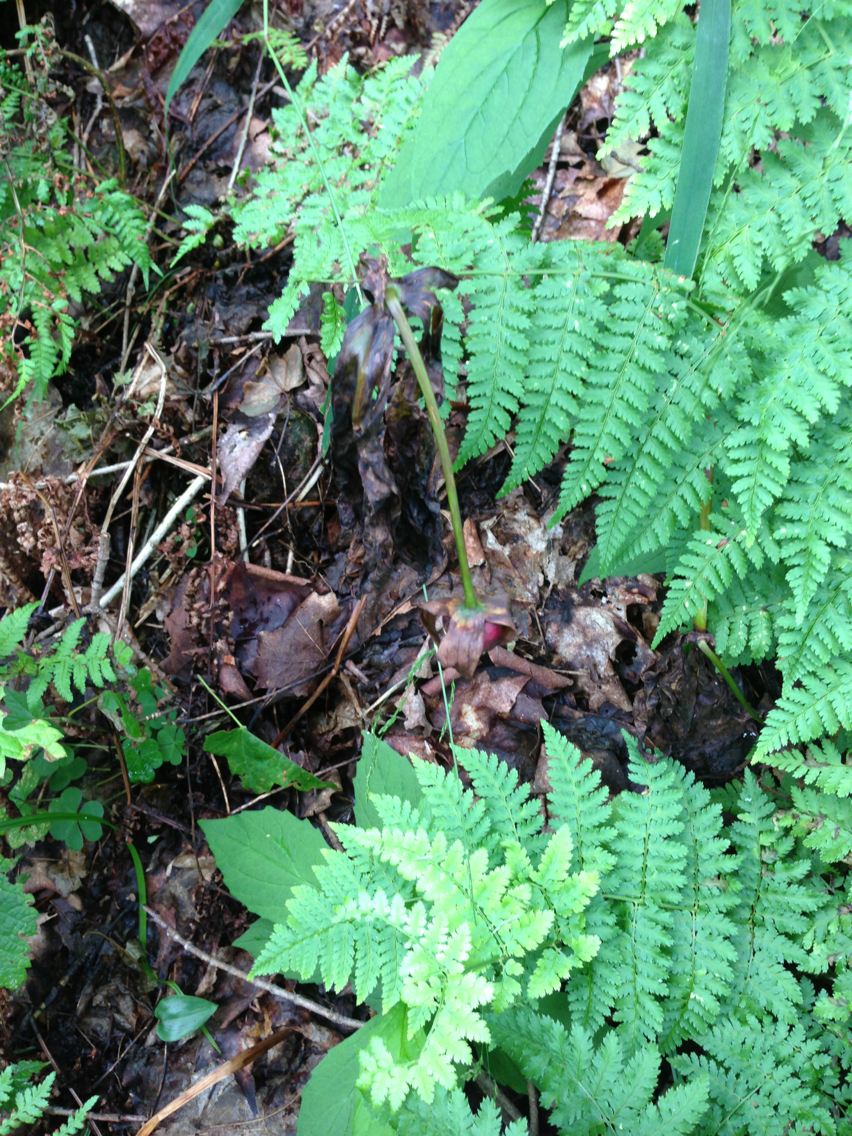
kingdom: Plantae
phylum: Tracheophyta
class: Liliopsida
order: Liliales
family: Melanthiaceae
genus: Trillium
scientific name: Trillium erectum
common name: Purple trillium
